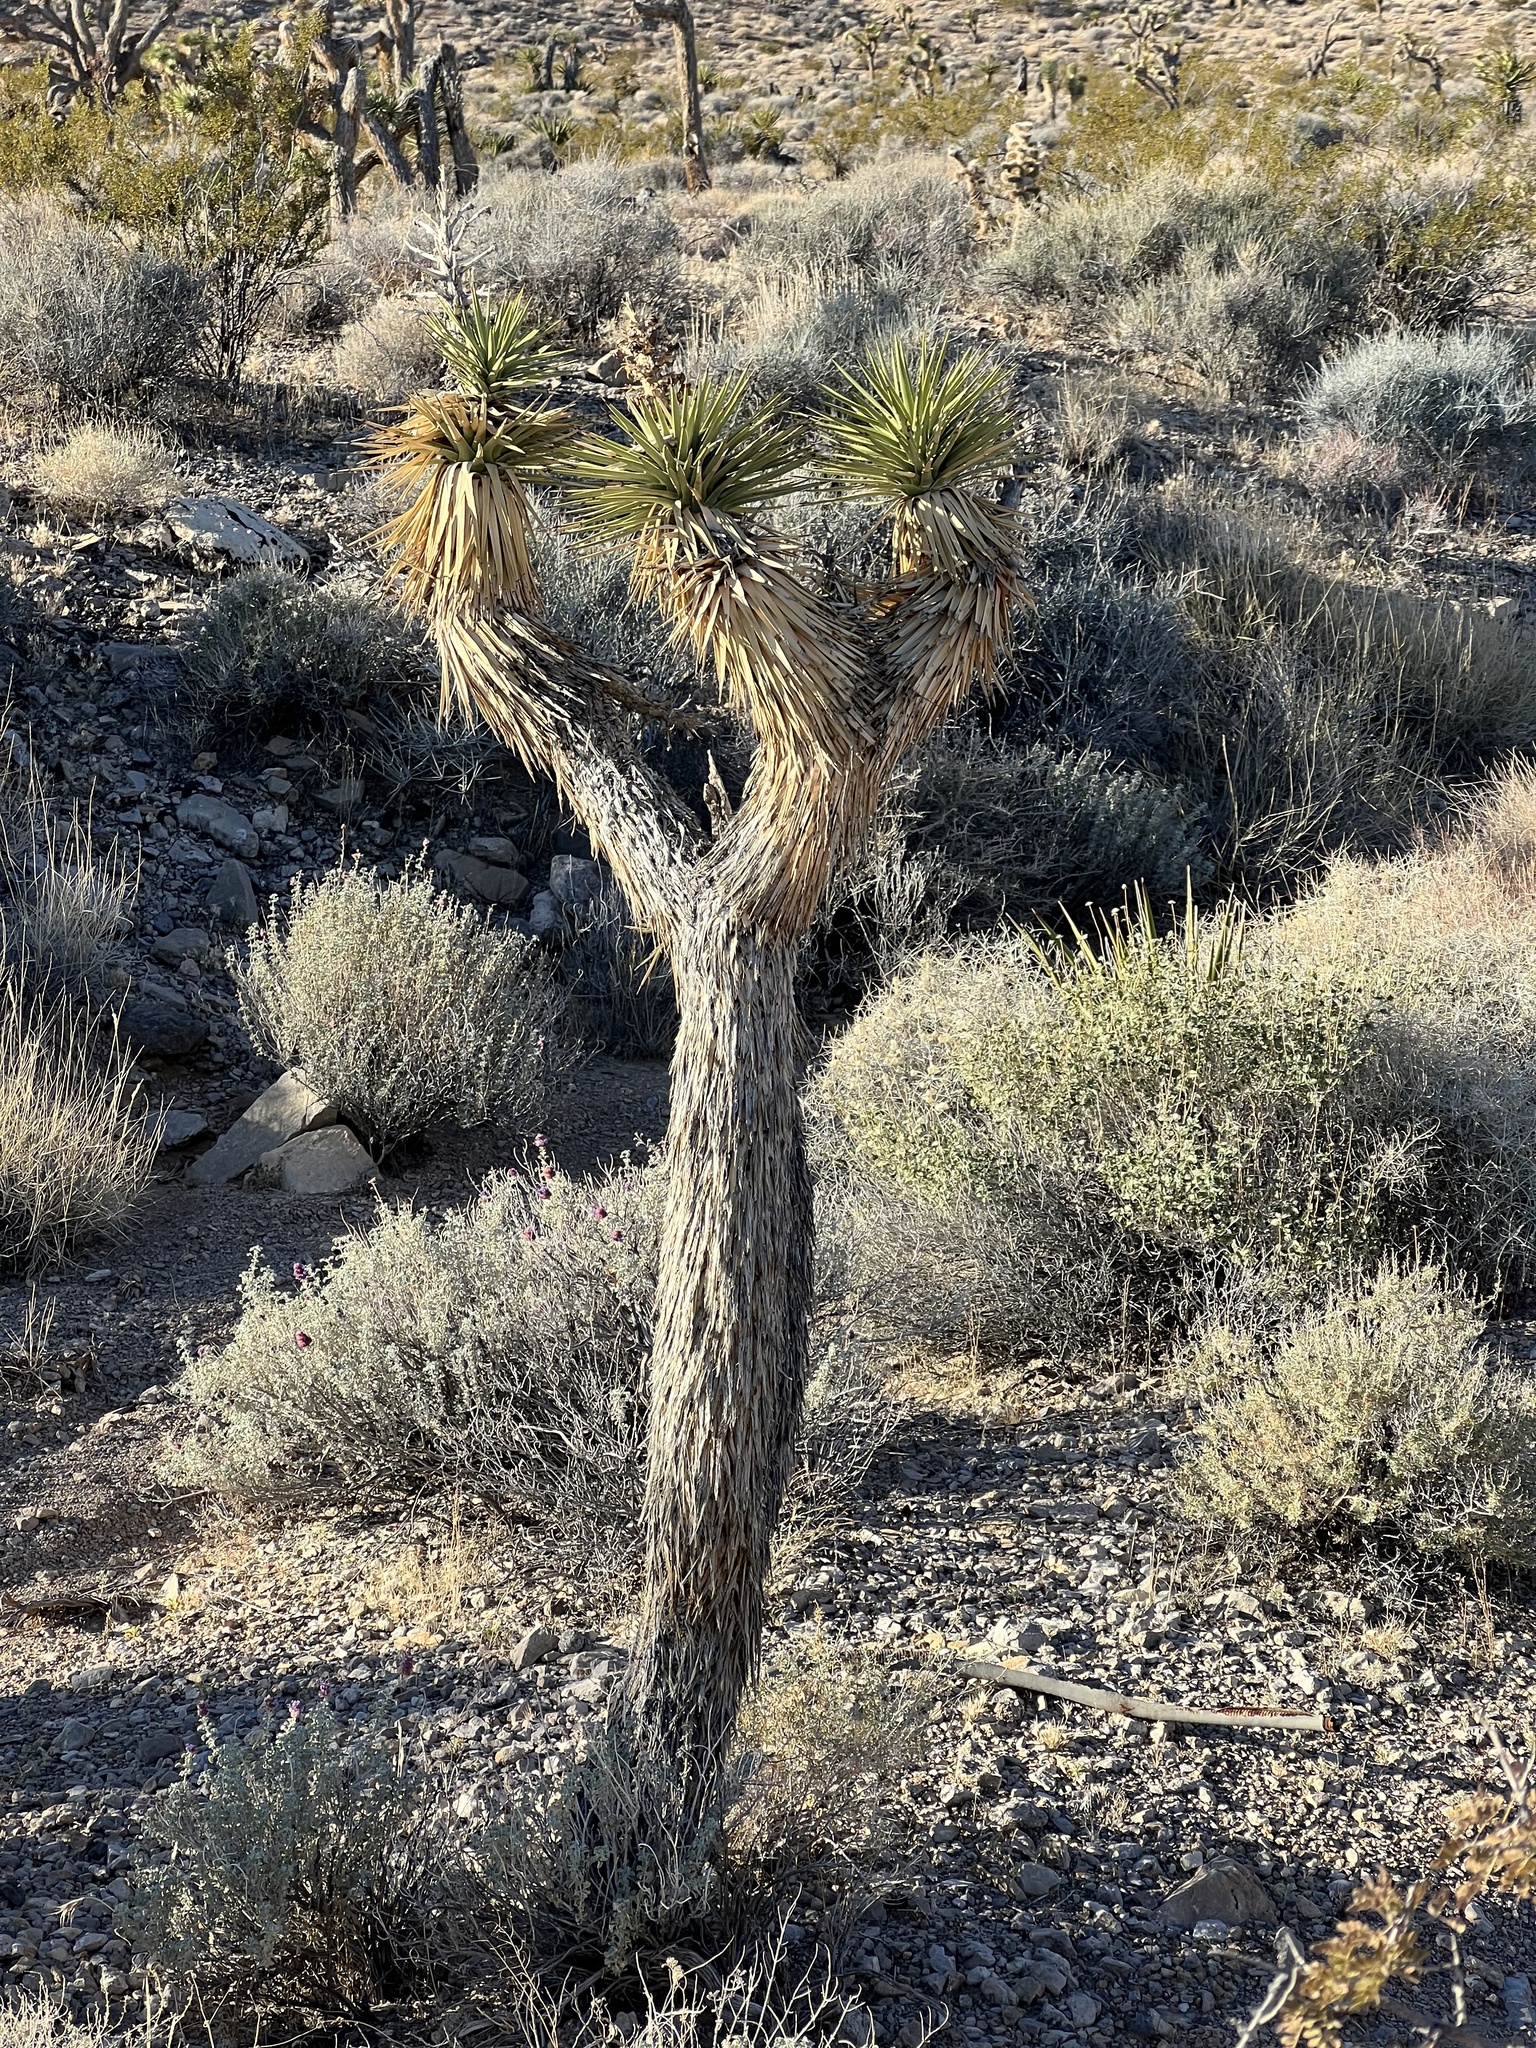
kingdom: Plantae
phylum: Tracheophyta
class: Liliopsida
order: Asparagales
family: Asparagaceae
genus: Yucca
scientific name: Yucca brevifolia
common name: Joshua tree
